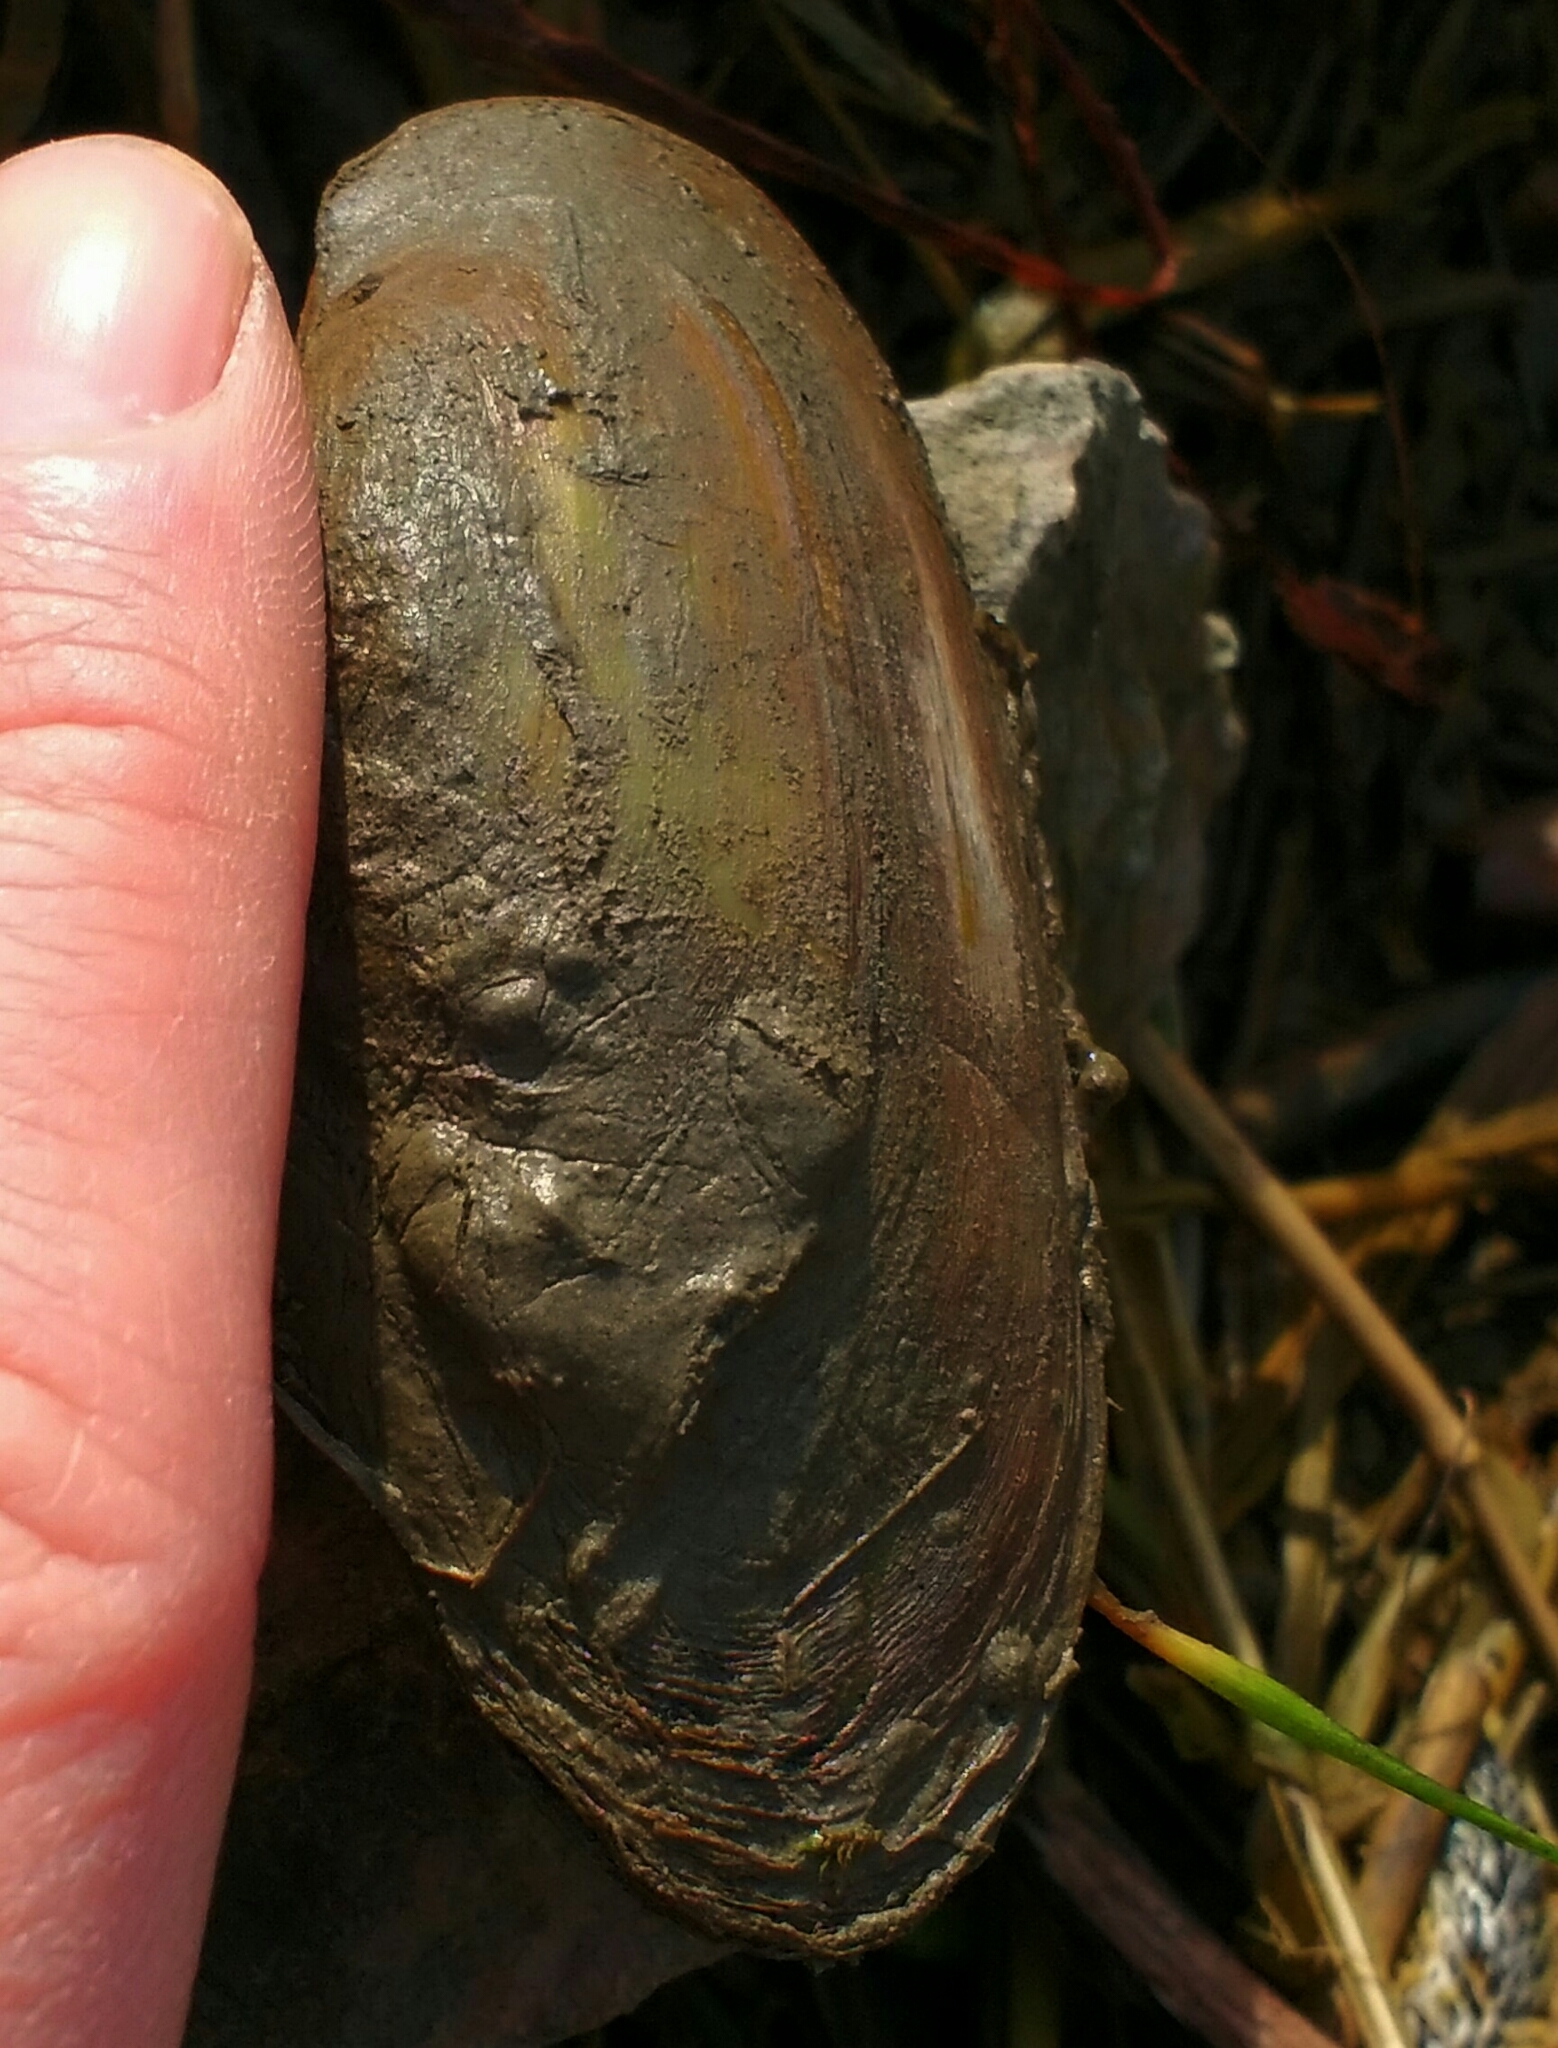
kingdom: Animalia
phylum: Mollusca
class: Bivalvia
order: Unionida
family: Unionidae
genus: Unio
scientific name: Unio pictorum
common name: Painter's mussel
